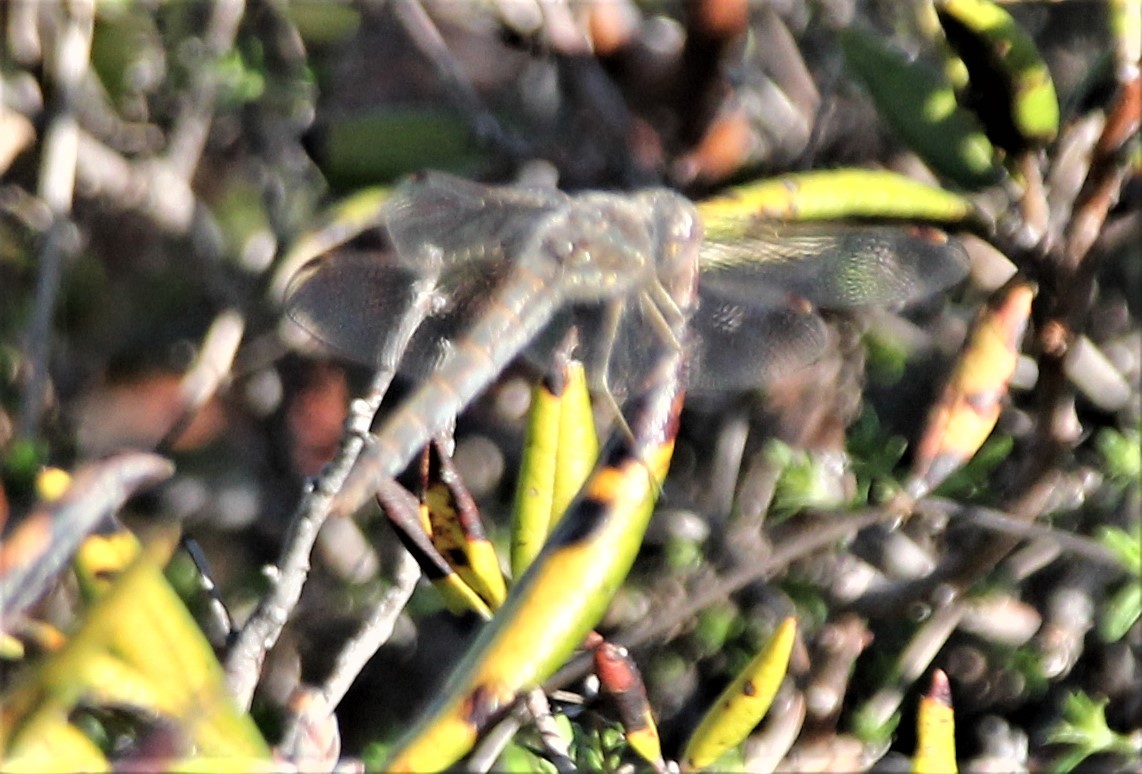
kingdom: Animalia
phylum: Arthropoda
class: Insecta
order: Odonata
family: Libellulidae
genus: Sympetrum
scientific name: Sympetrum corruptum
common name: Variegated meadowhawk
